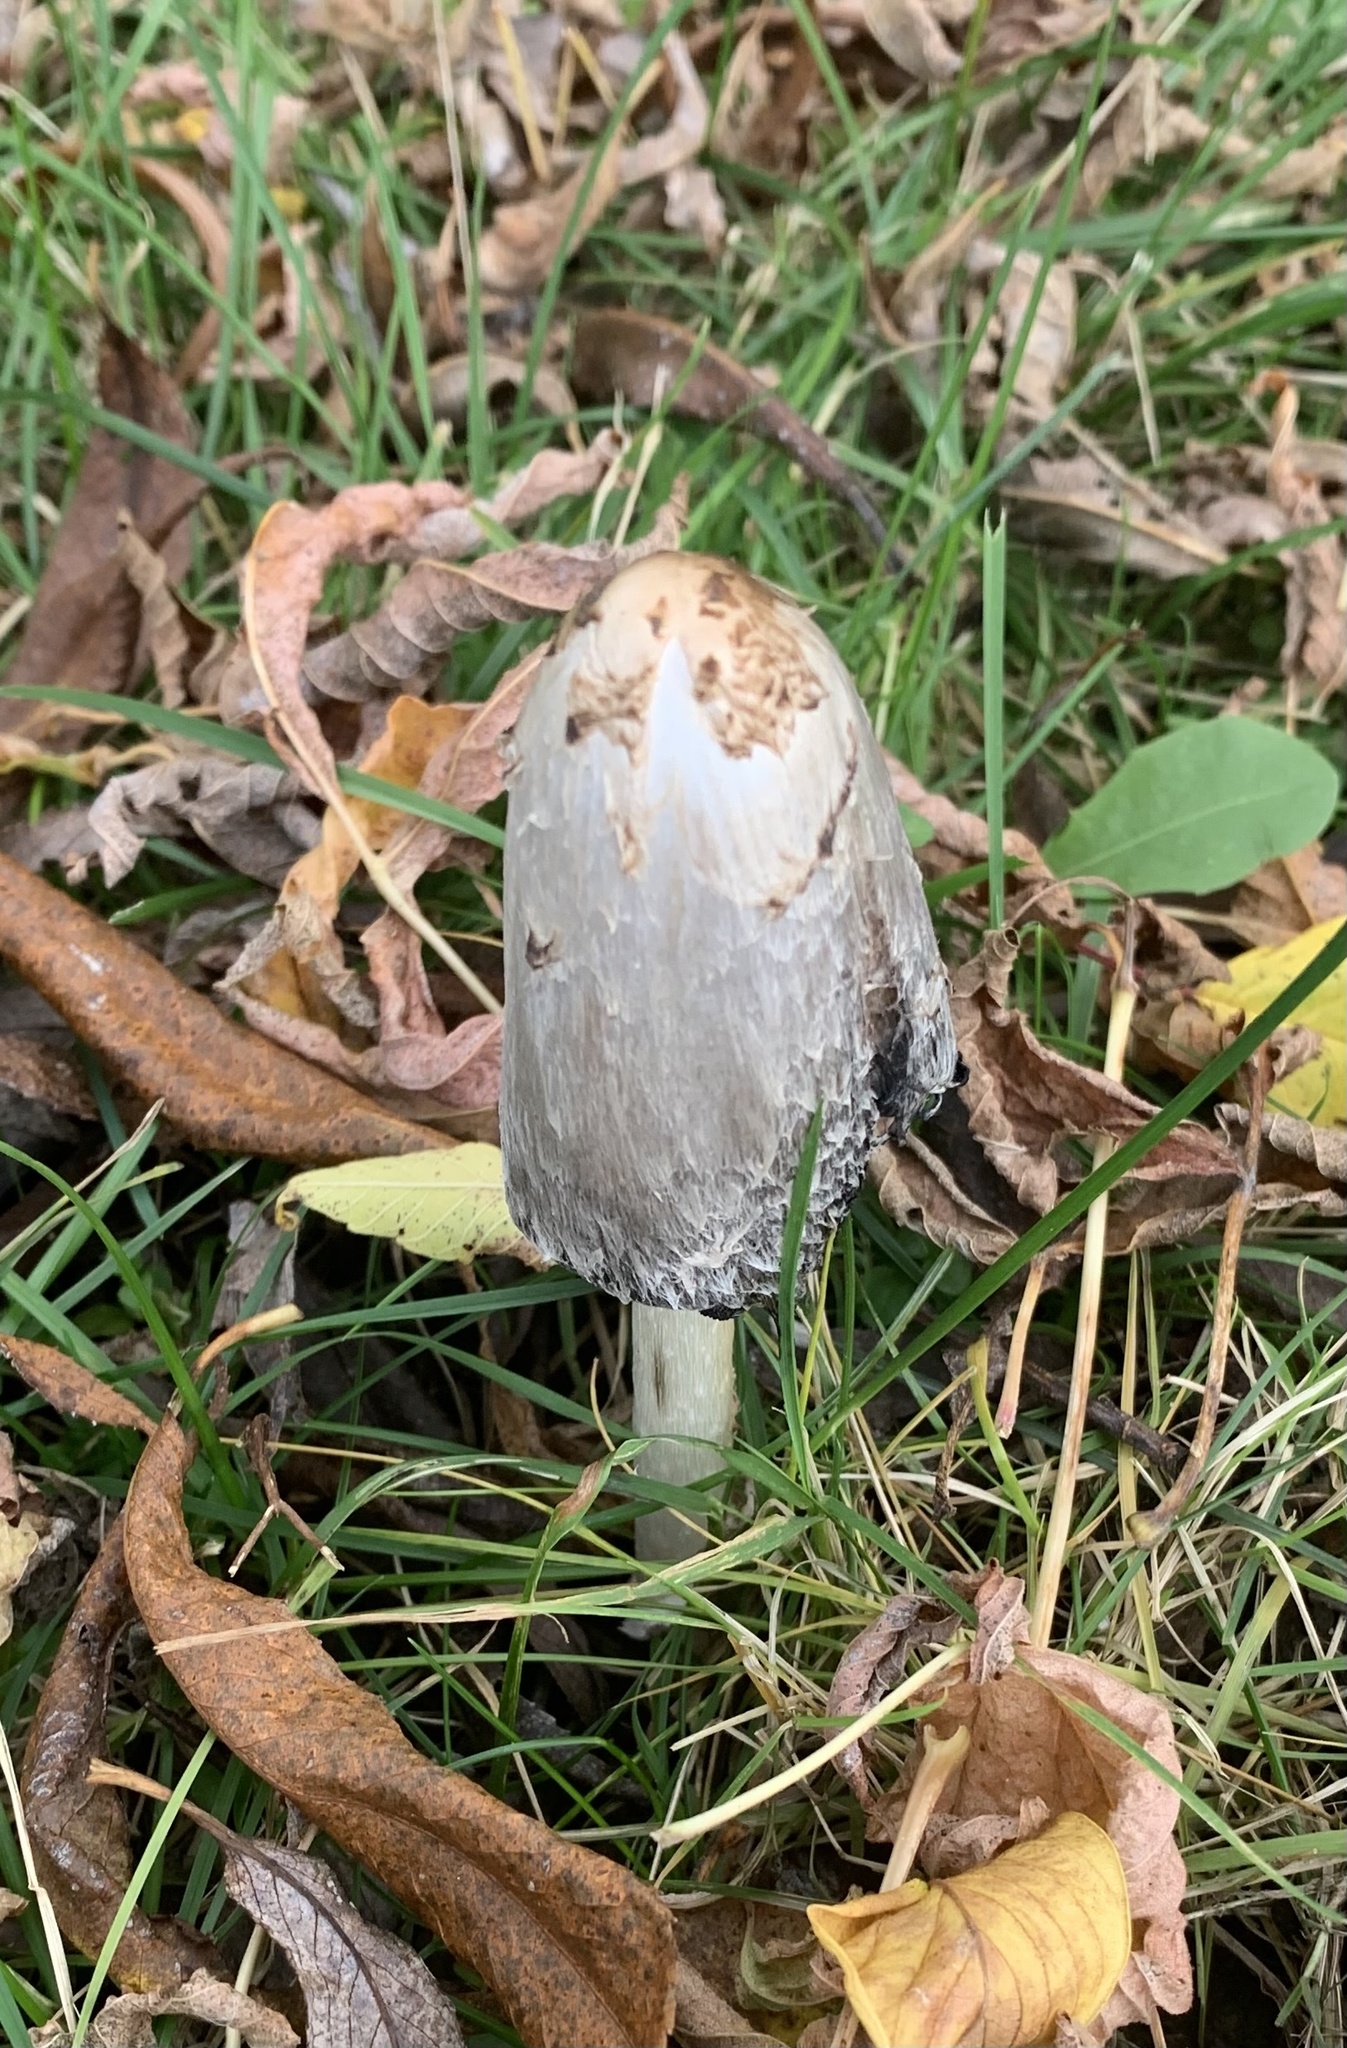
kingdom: Fungi
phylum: Basidiomycota
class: Agaricomycetes
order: Agaricales
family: Agaricaceae
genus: Coprinus
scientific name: Coprinus comatus
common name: Lawyer's wig
